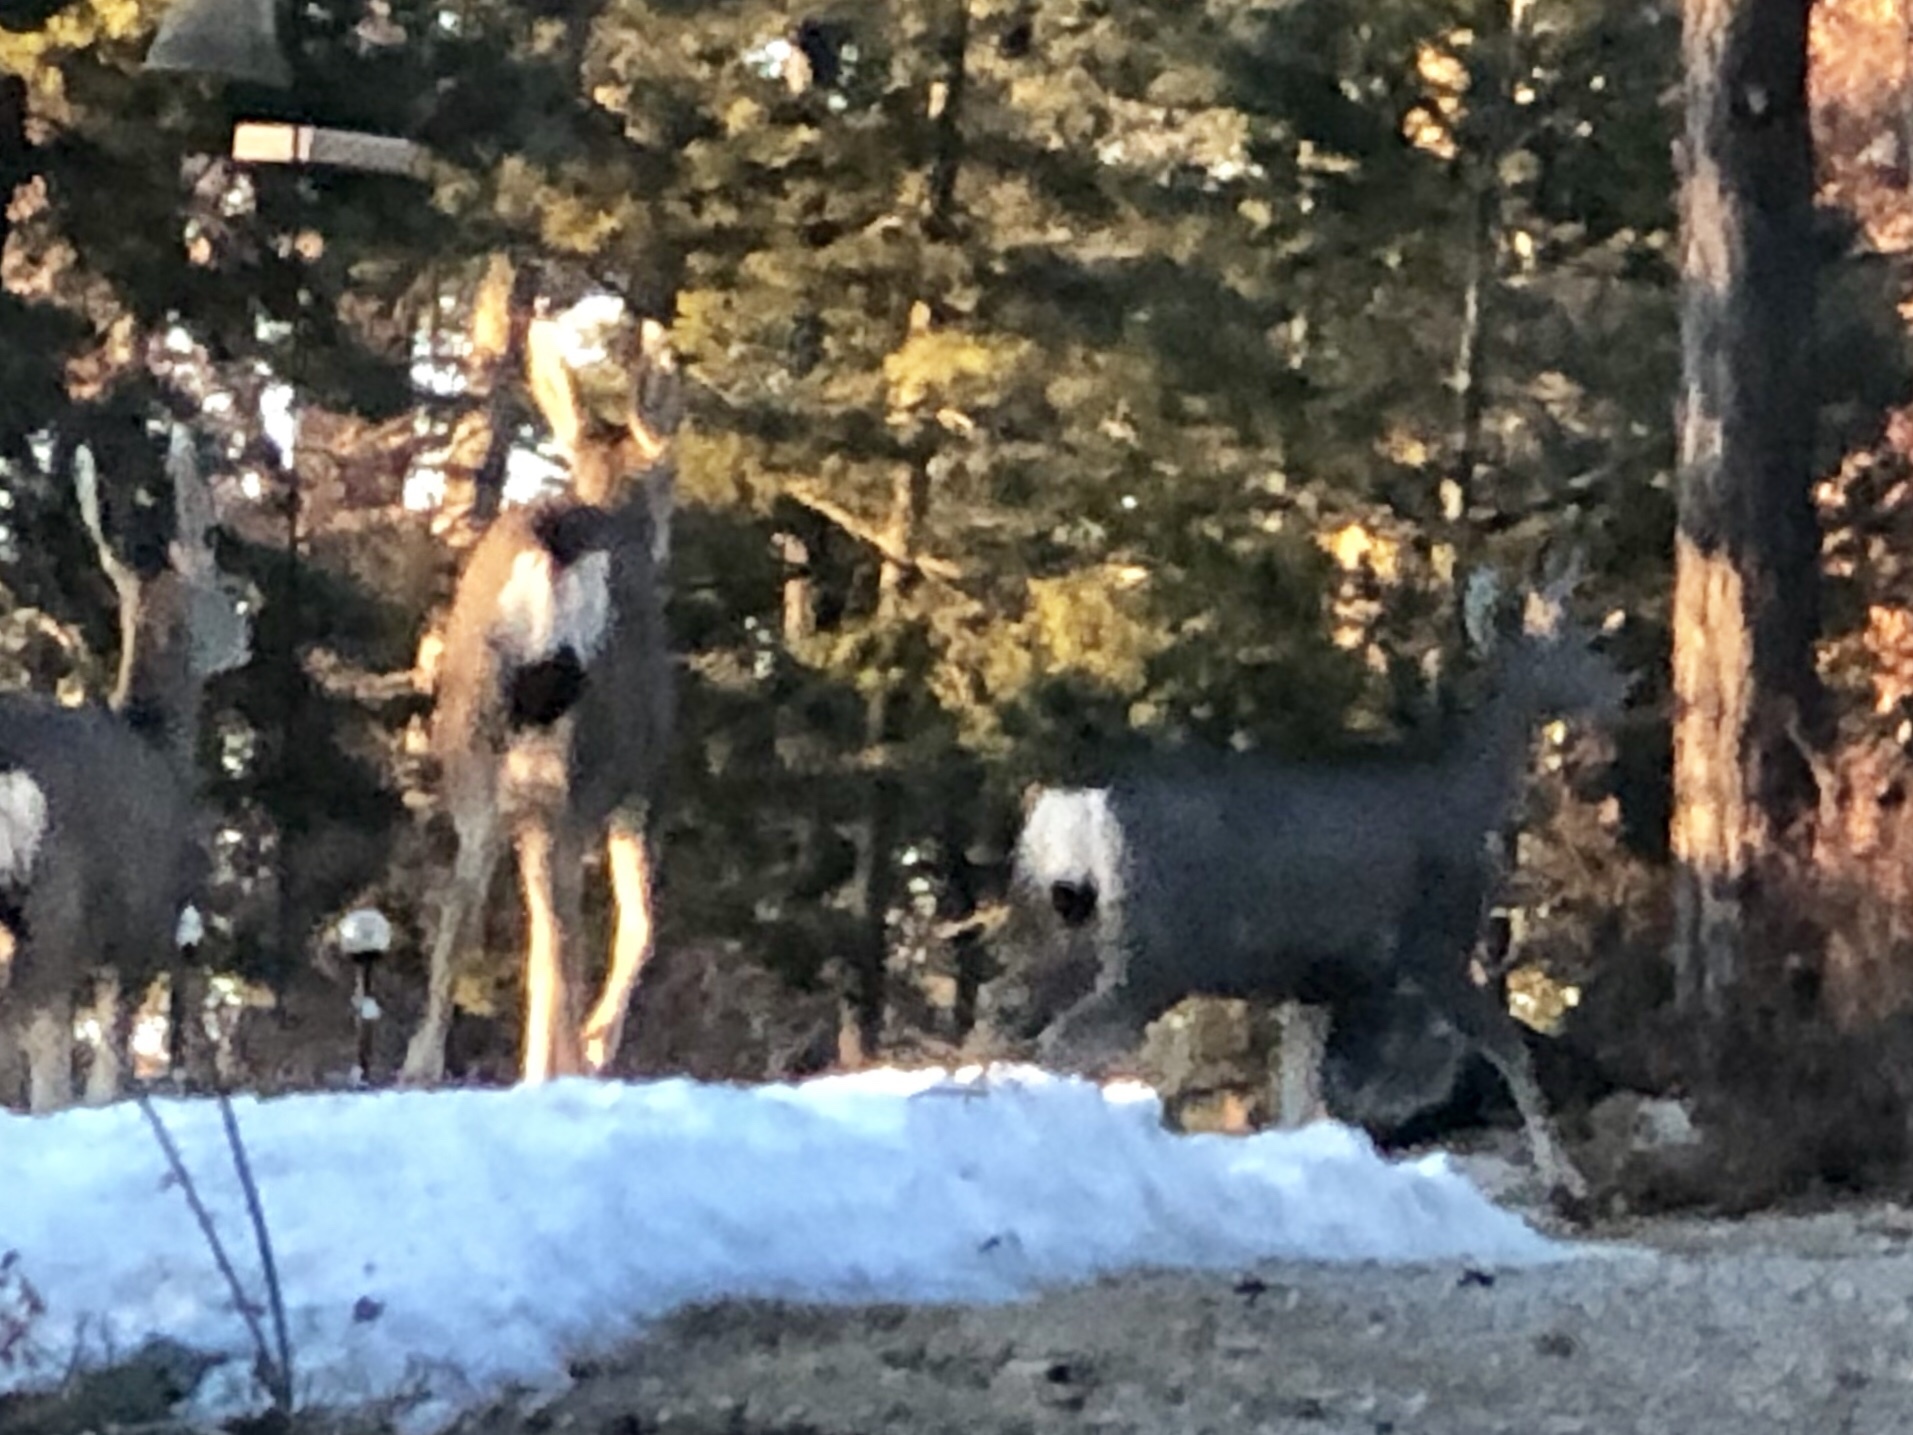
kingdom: Animalia
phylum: Chordata
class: Mammalia
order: Artiodactyla
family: Cervidae
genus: Odocoileus
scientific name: Odocoileus hemionus
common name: Mule deer
